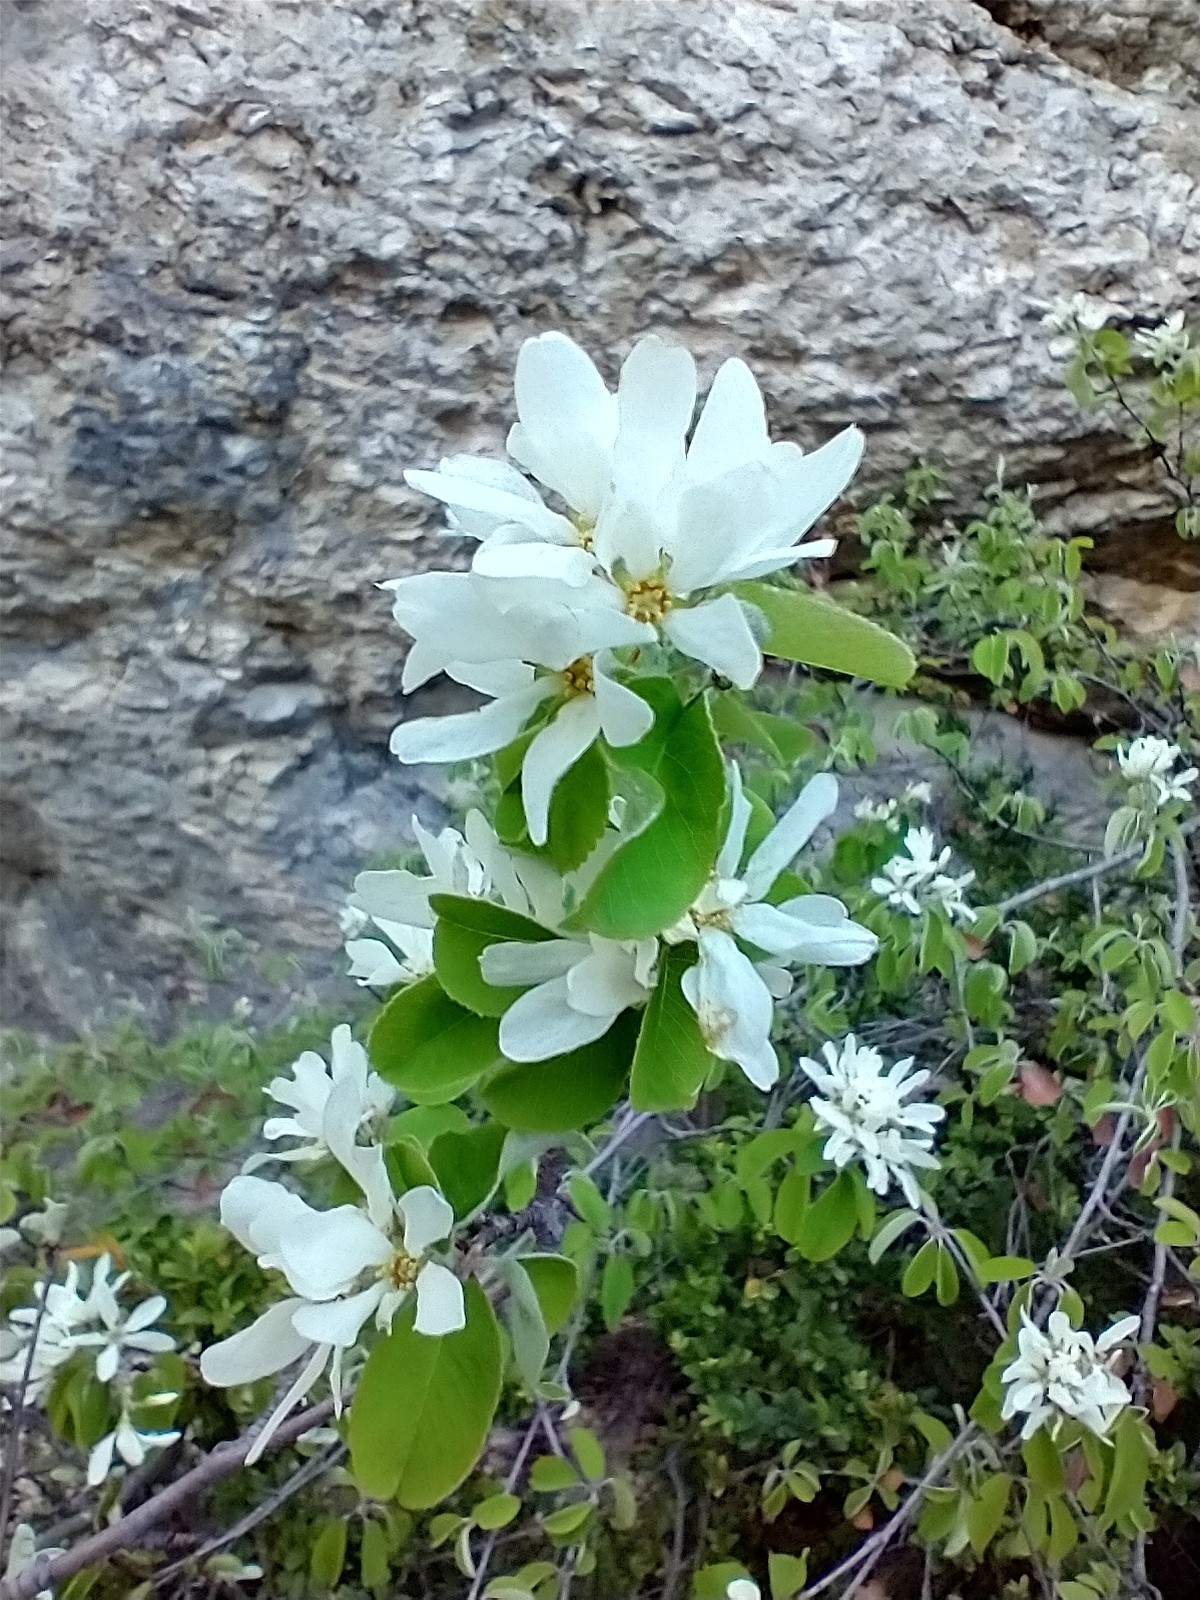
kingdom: Plantae
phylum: Tracheophyta
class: Magnoliopsida
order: Rosales
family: Rosaceae
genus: Amelanchier
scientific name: Amelanchier ovalis
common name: Serviceberry
